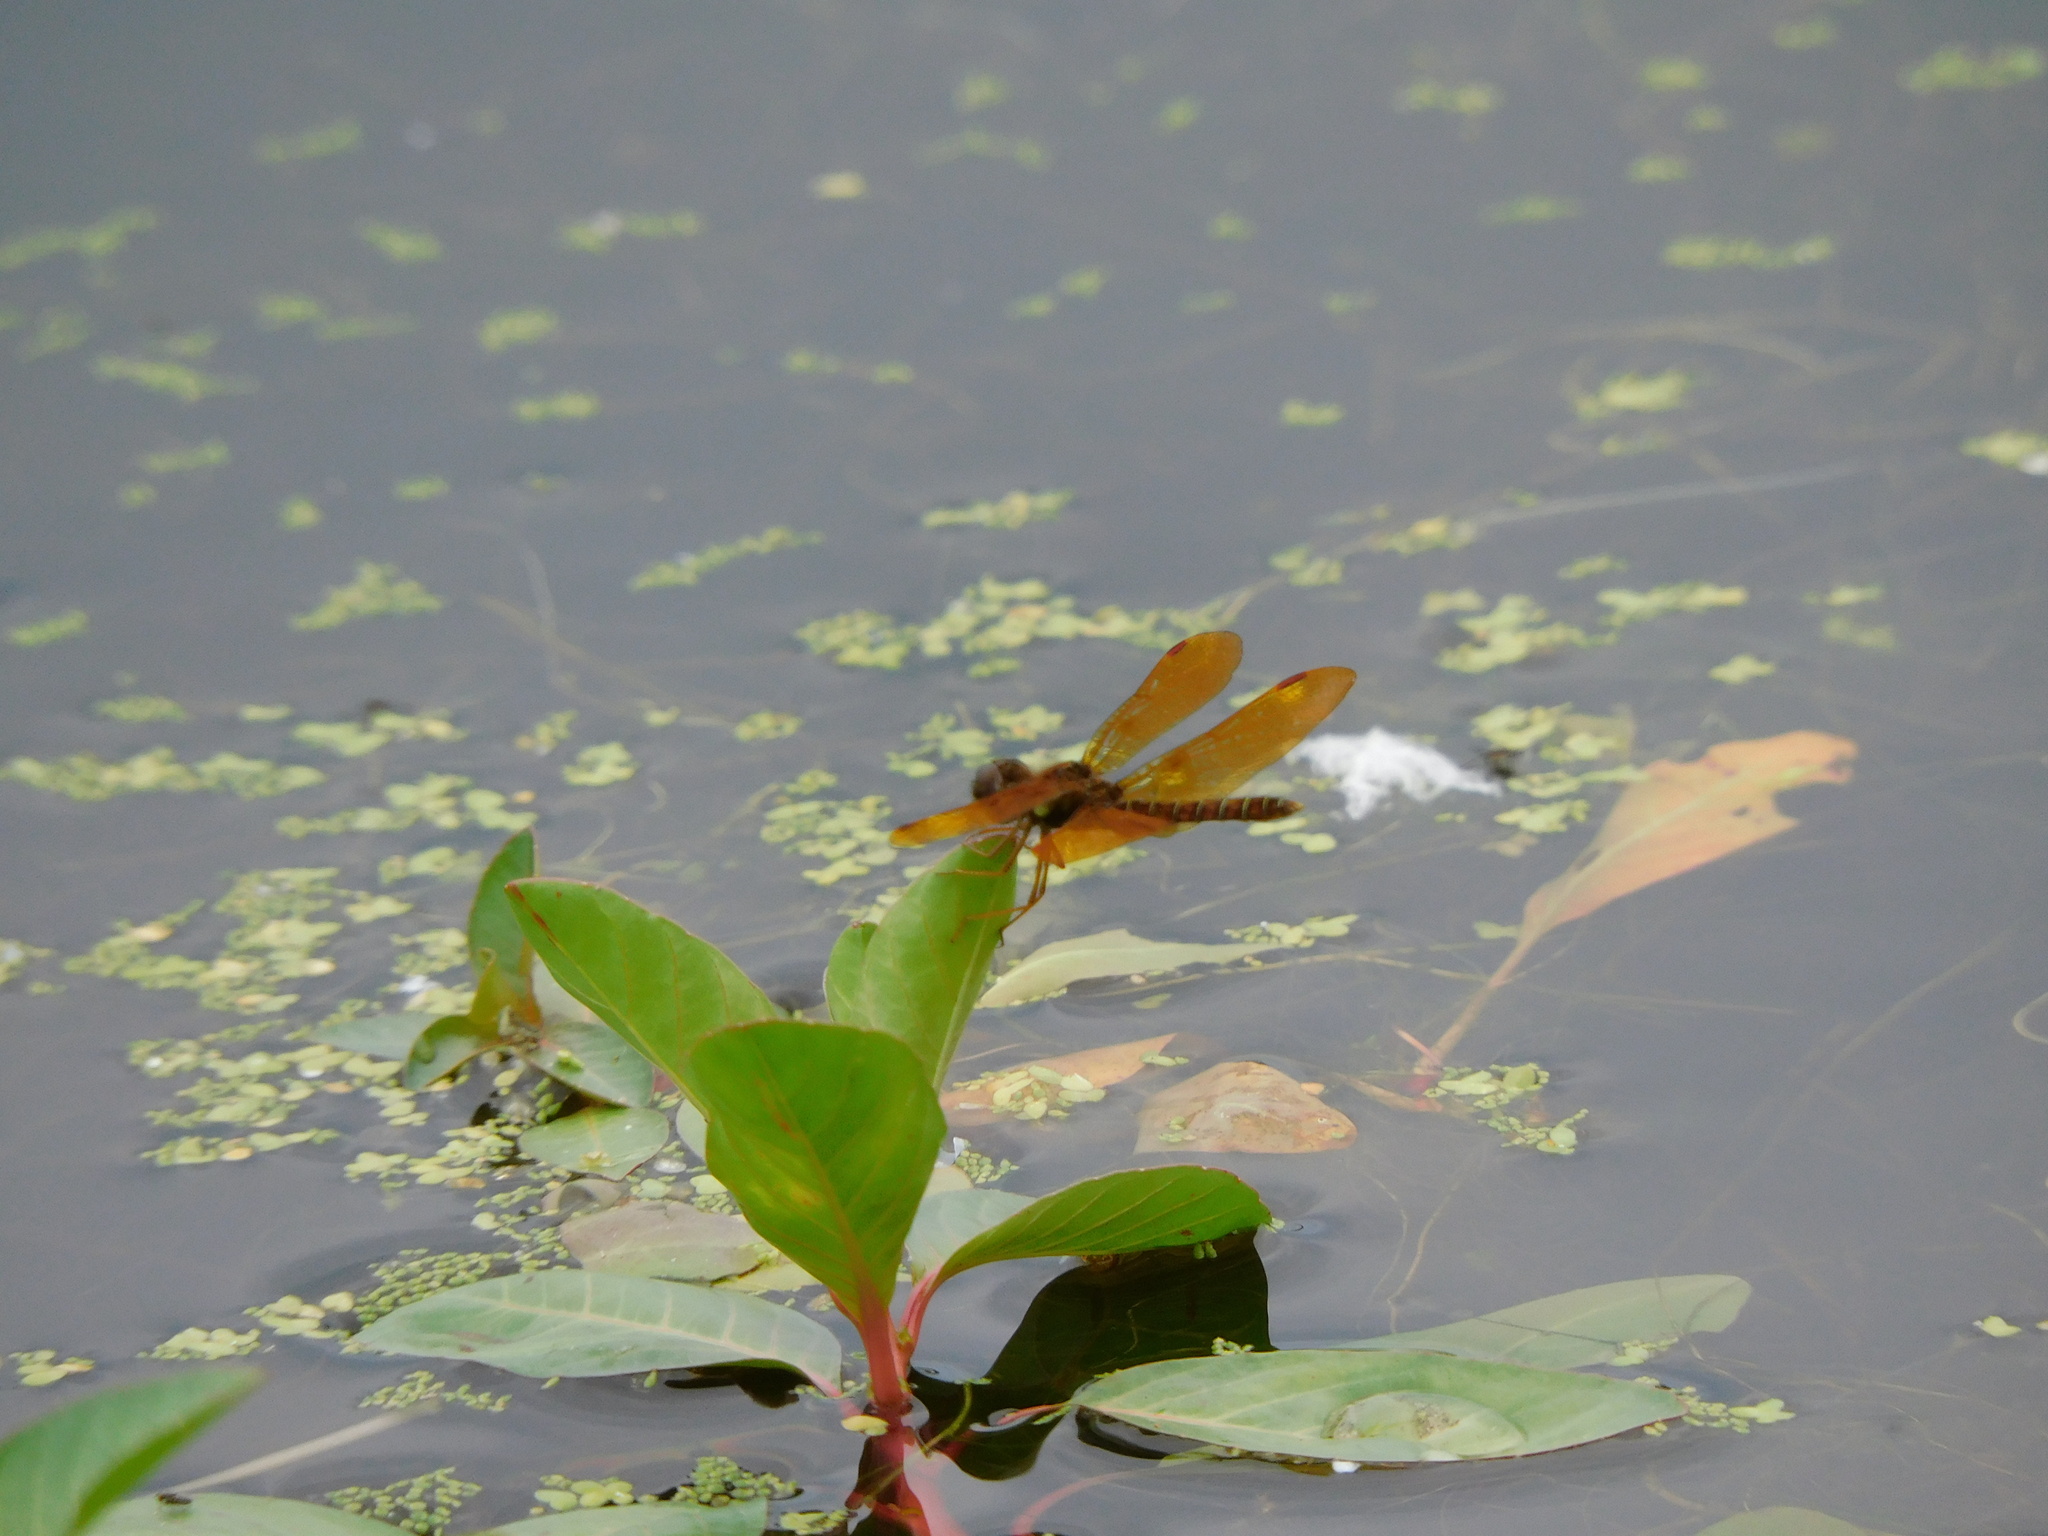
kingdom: Animalia
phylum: Arthropoda
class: Insecta
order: Odonata
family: Libellulidae
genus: Perithemis
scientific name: Perithemis tenera
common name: Eastern amberwing
